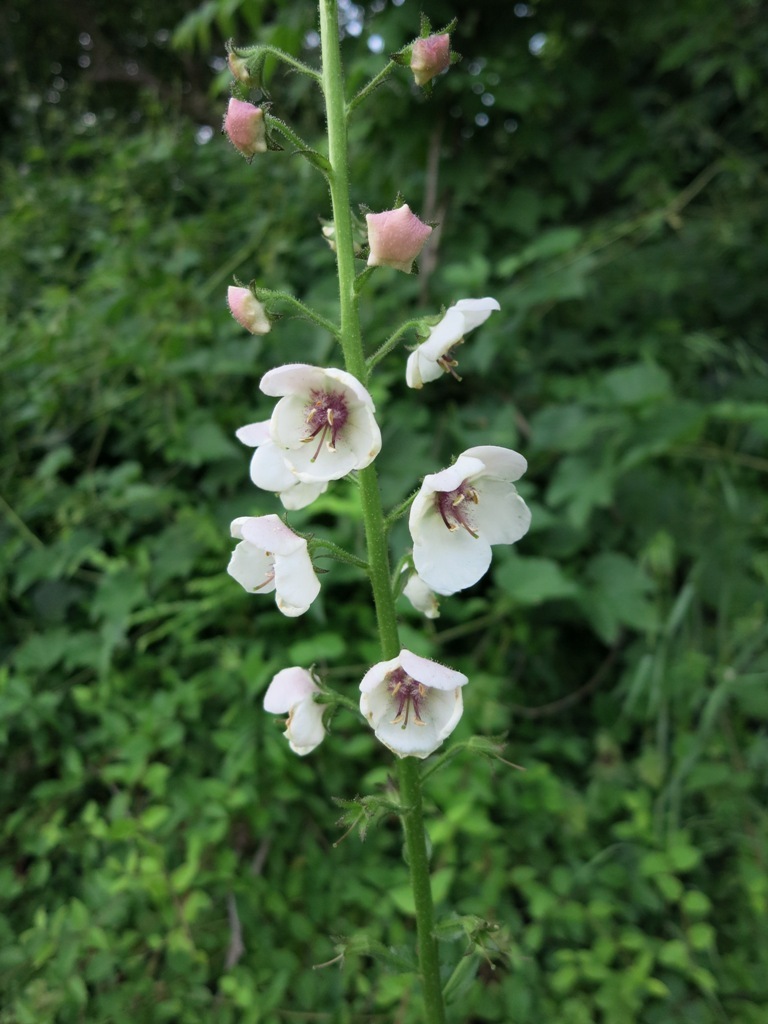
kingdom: Plantae
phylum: Tracheophyta
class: Magnoliopsida
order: Lamiales
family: Scrophulariaceae
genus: Verbascum
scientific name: Verbascum blattaria
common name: Moth mullein
